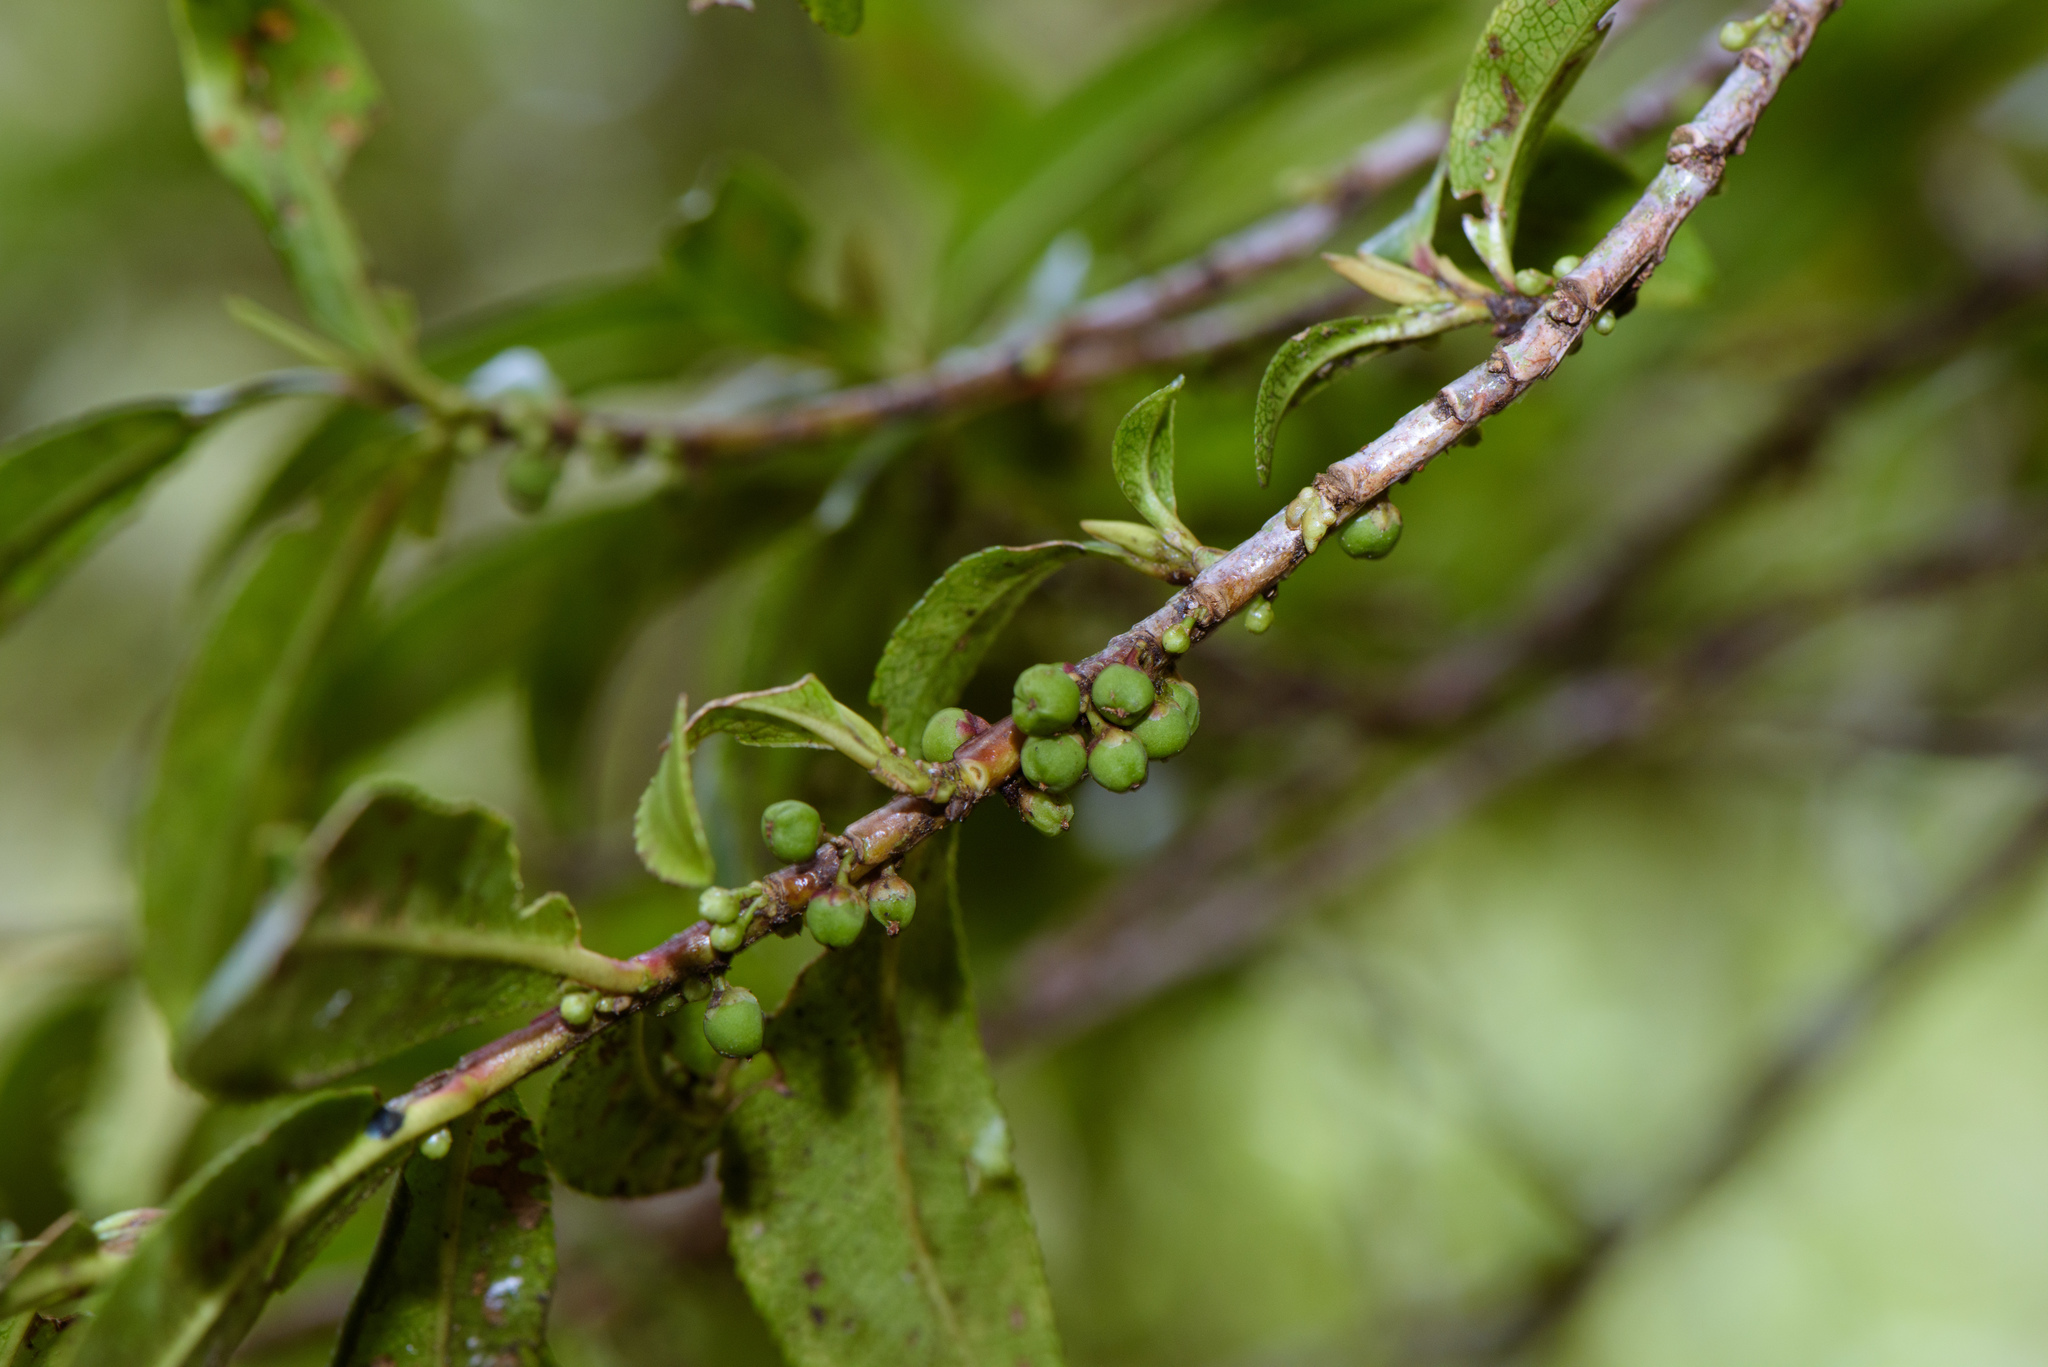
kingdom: Plantae
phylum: Tracheophyta
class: Magnoliopsida
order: Ericales
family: Pentaphylacaceae
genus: Eurya
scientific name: Eurya glaberrima
